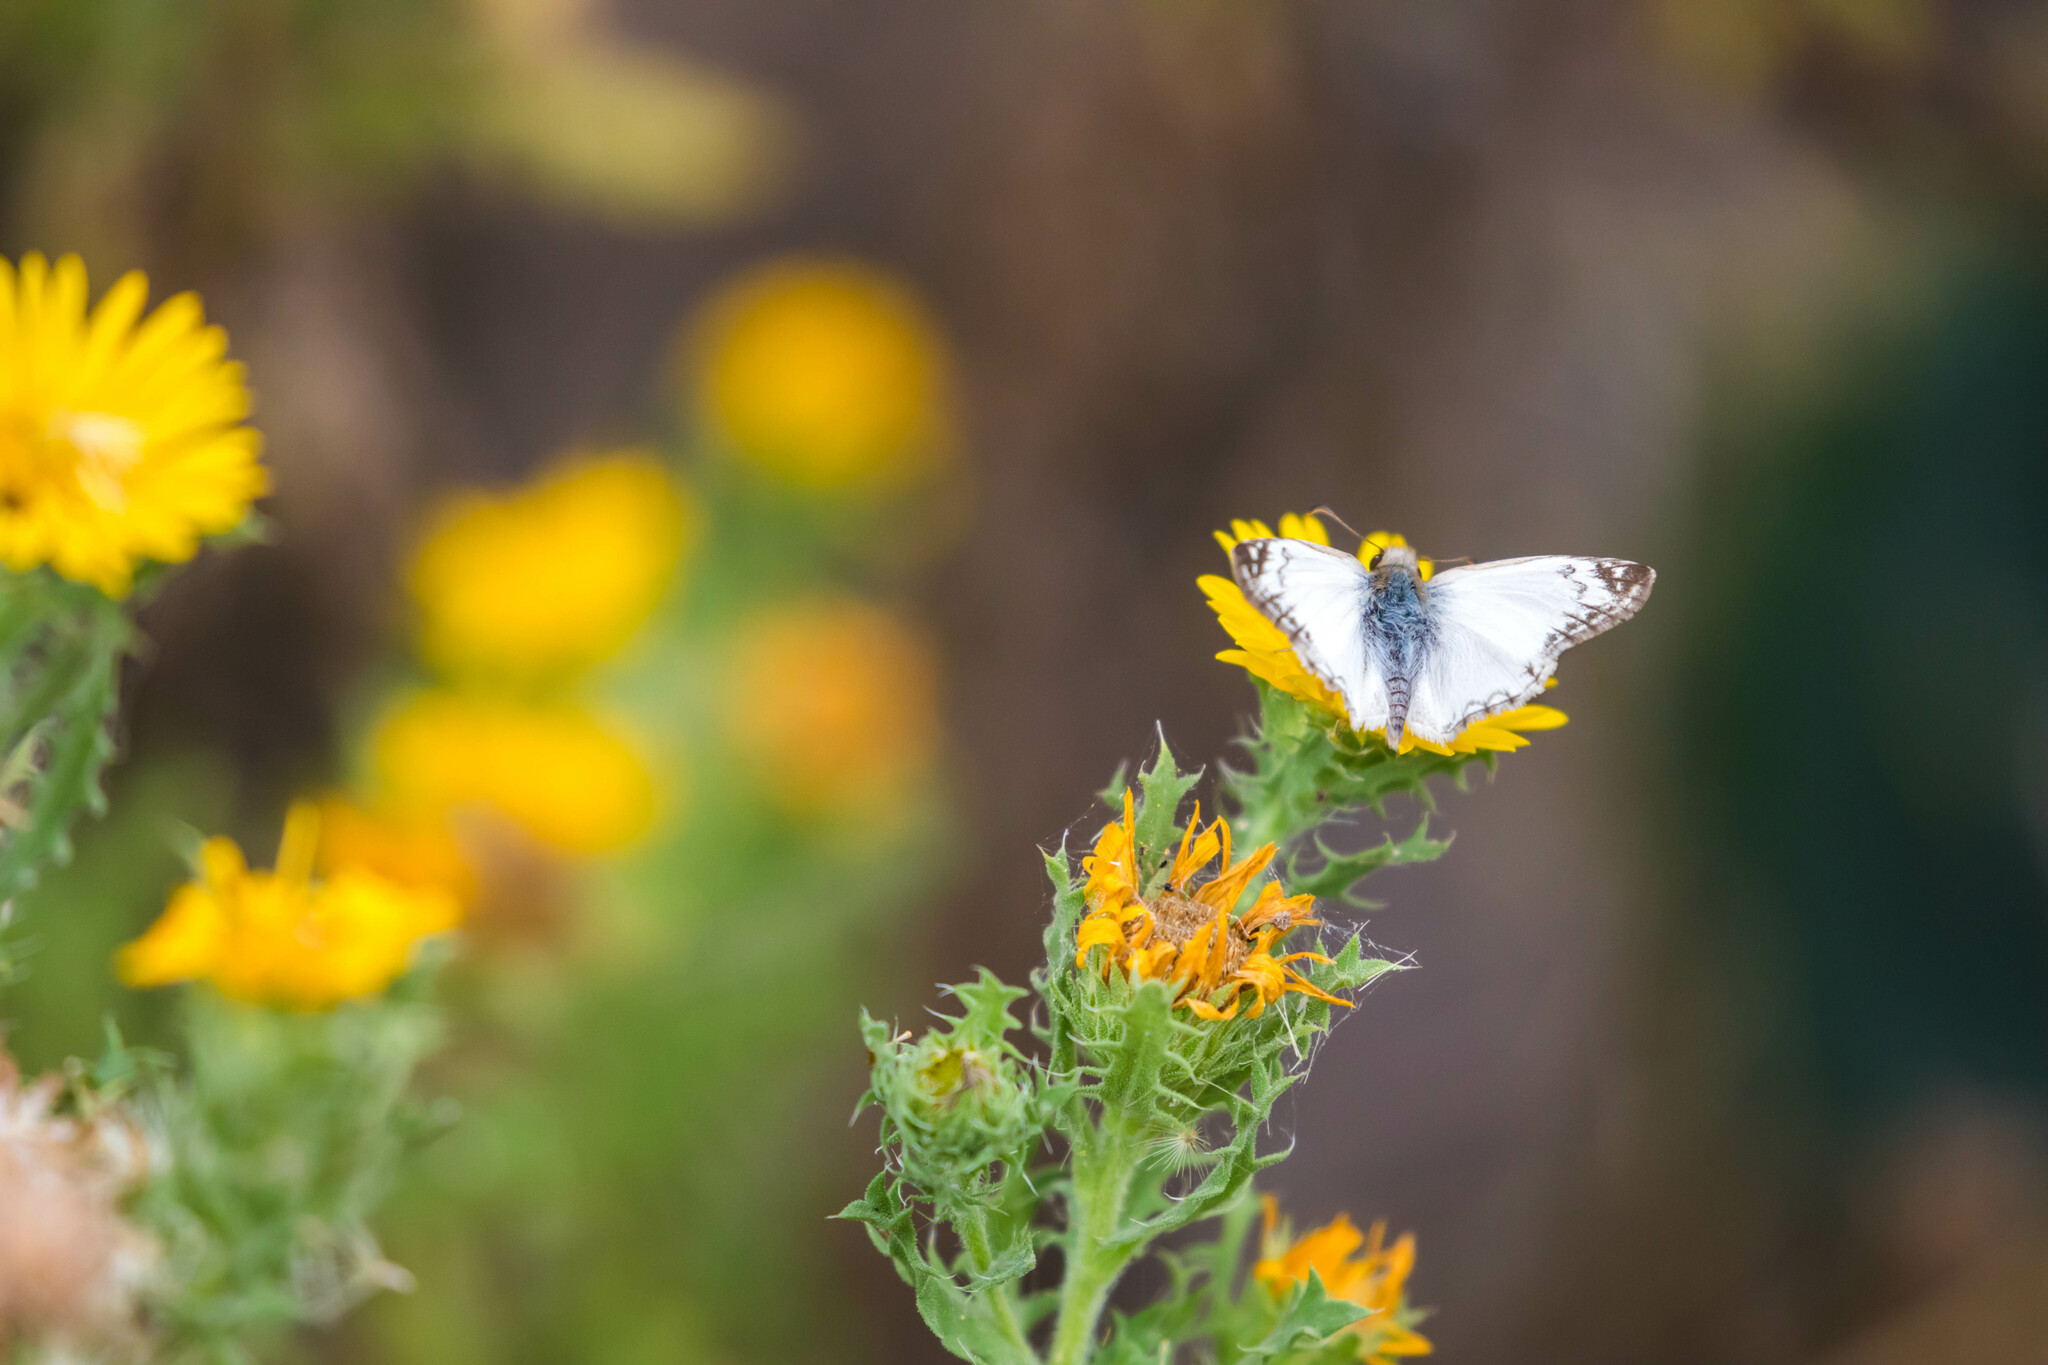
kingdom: Animalia
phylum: Arthropoda
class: Insecta
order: Lepidoptera
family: Hesperiidae
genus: Heliopetes
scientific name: Heliopetes laviana
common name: Laviana white-skipper
